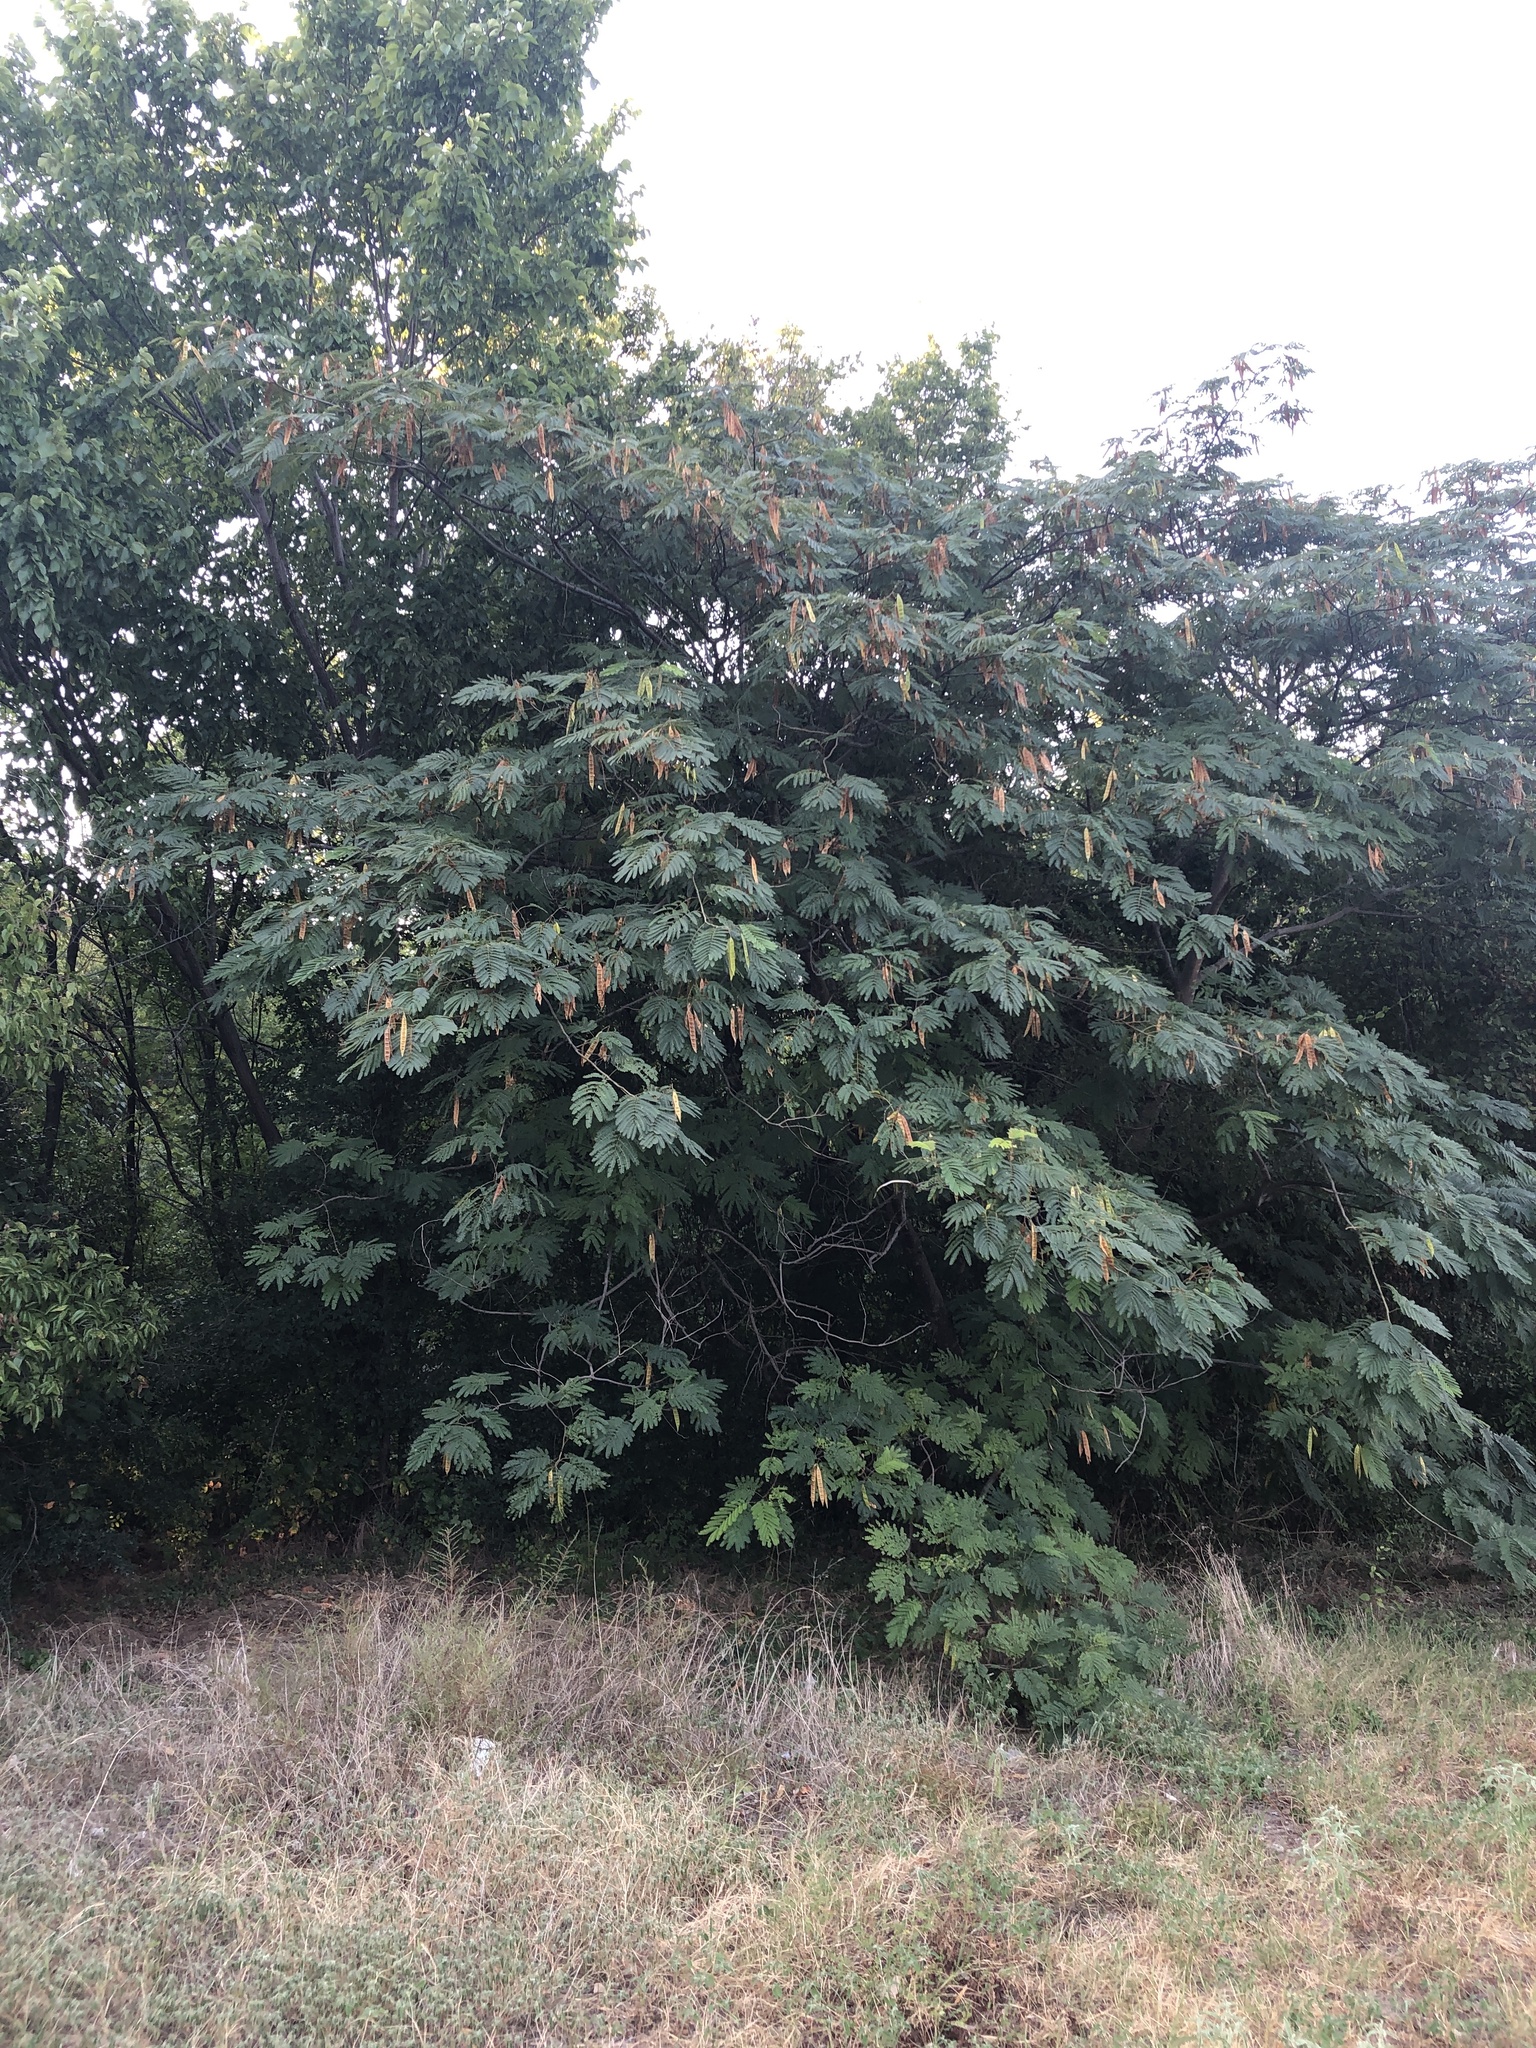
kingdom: Plantae
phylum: Tracheophyta
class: Magnoliopsida
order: Fabales
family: Fabaceae
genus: Albizia
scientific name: Albizia julibrissin
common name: Silktree
